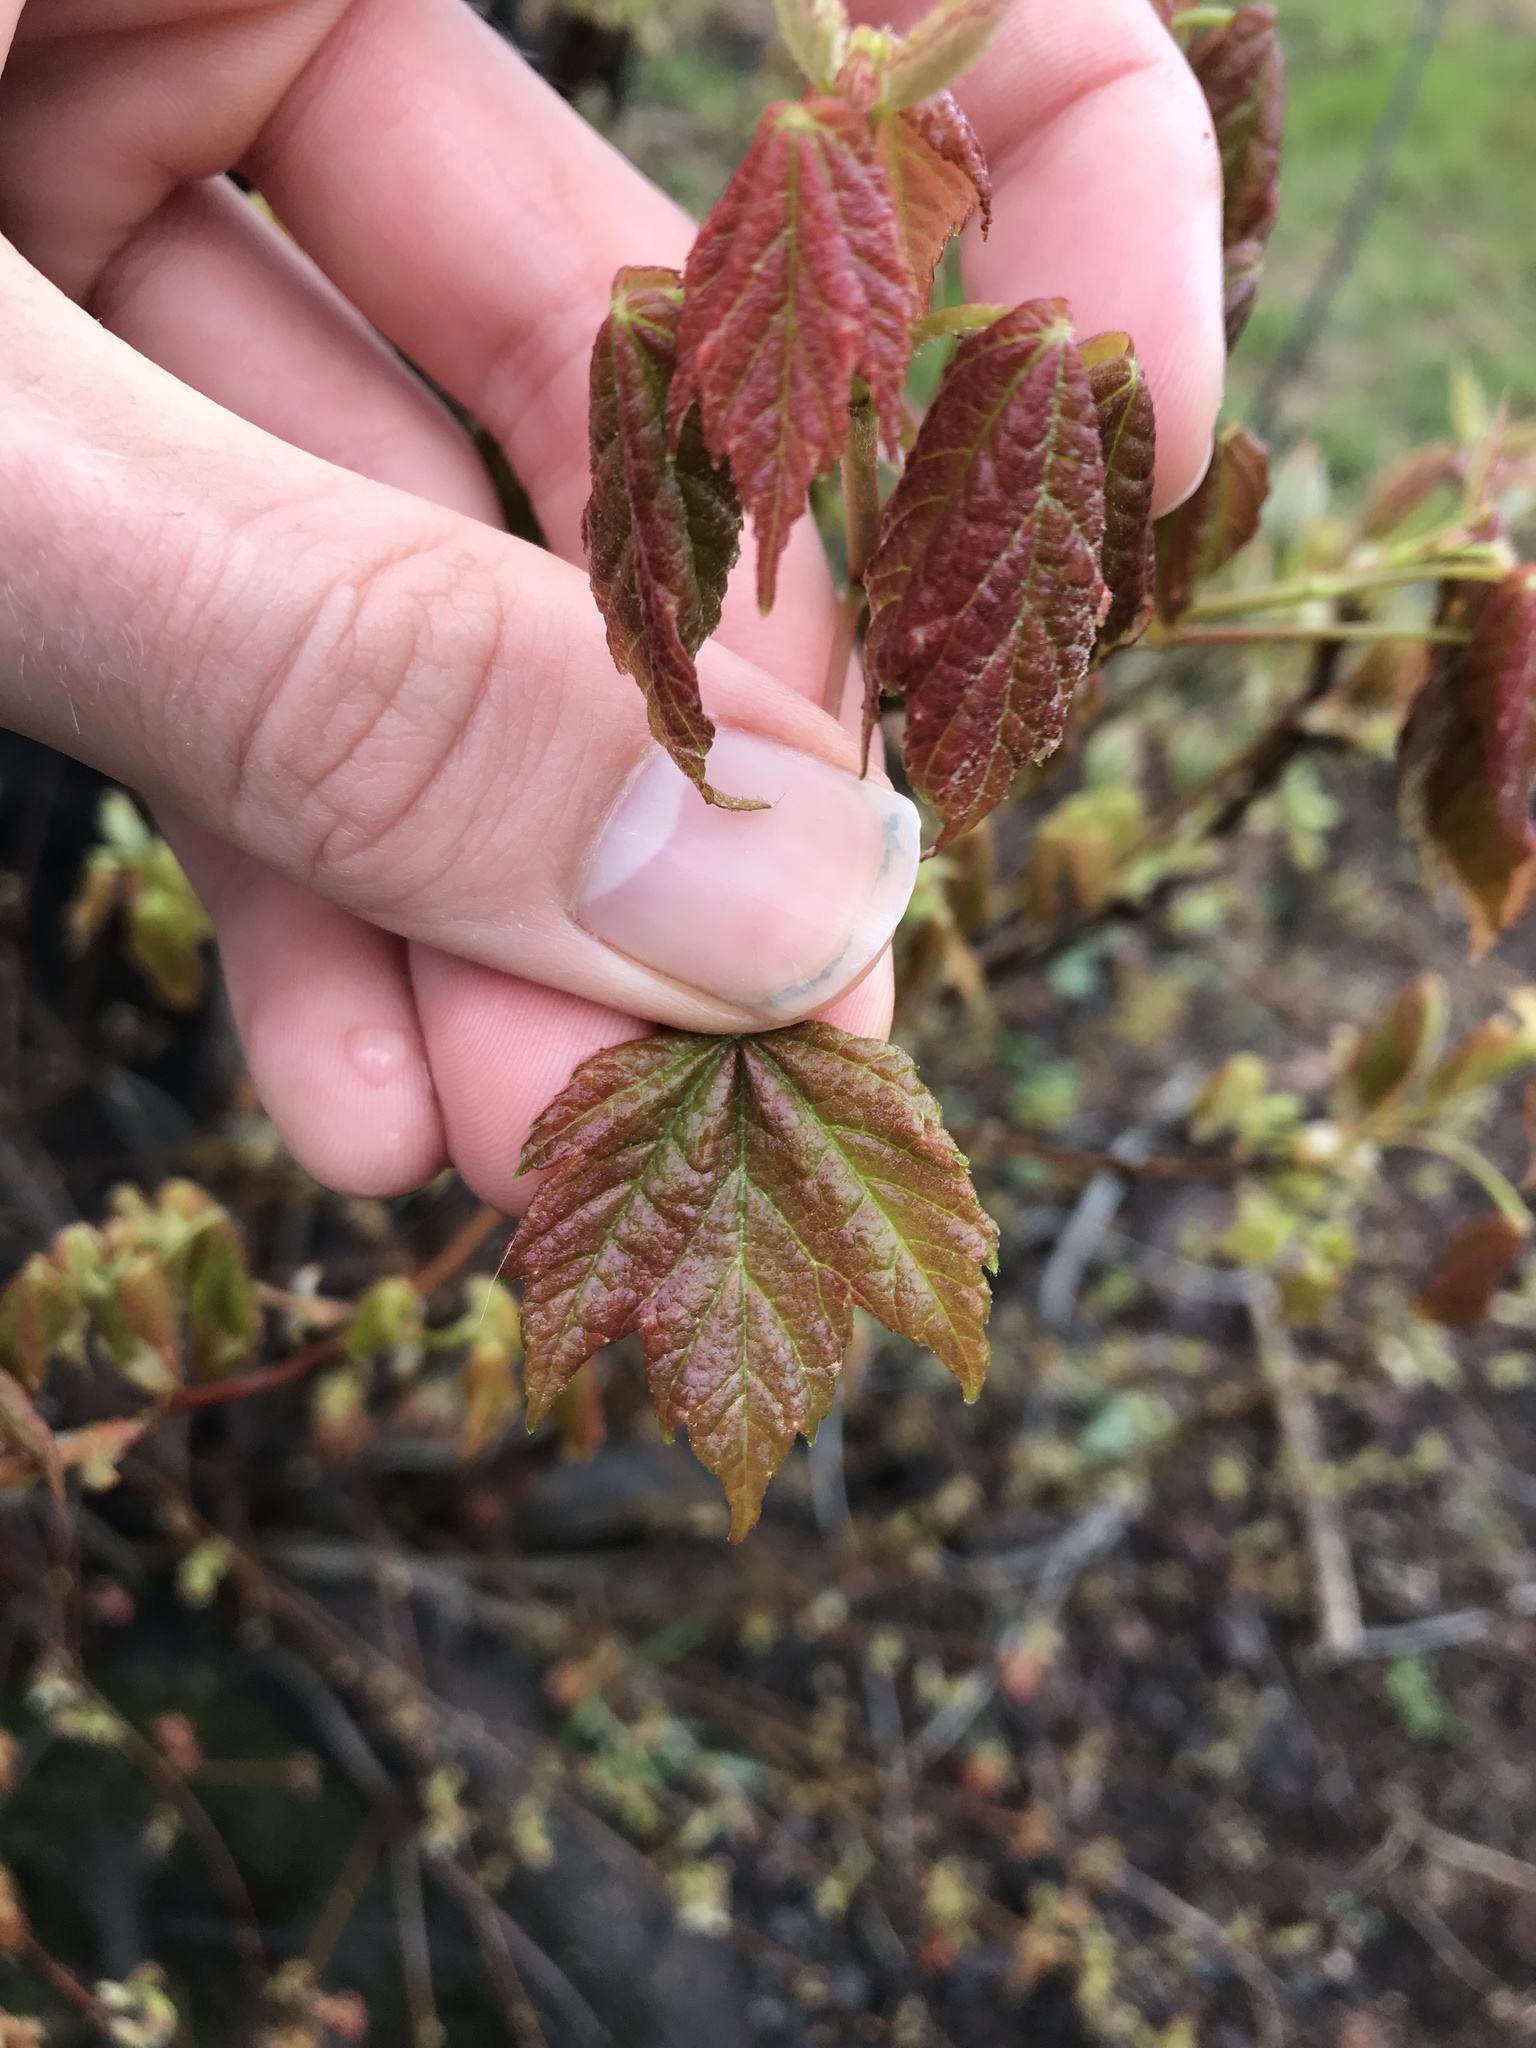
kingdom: Plantae
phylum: Tracheophyta
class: Magnoliopsida
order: Sapindales
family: Sapindaceae
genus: Acer
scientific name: Acer rubrum
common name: Red maple
